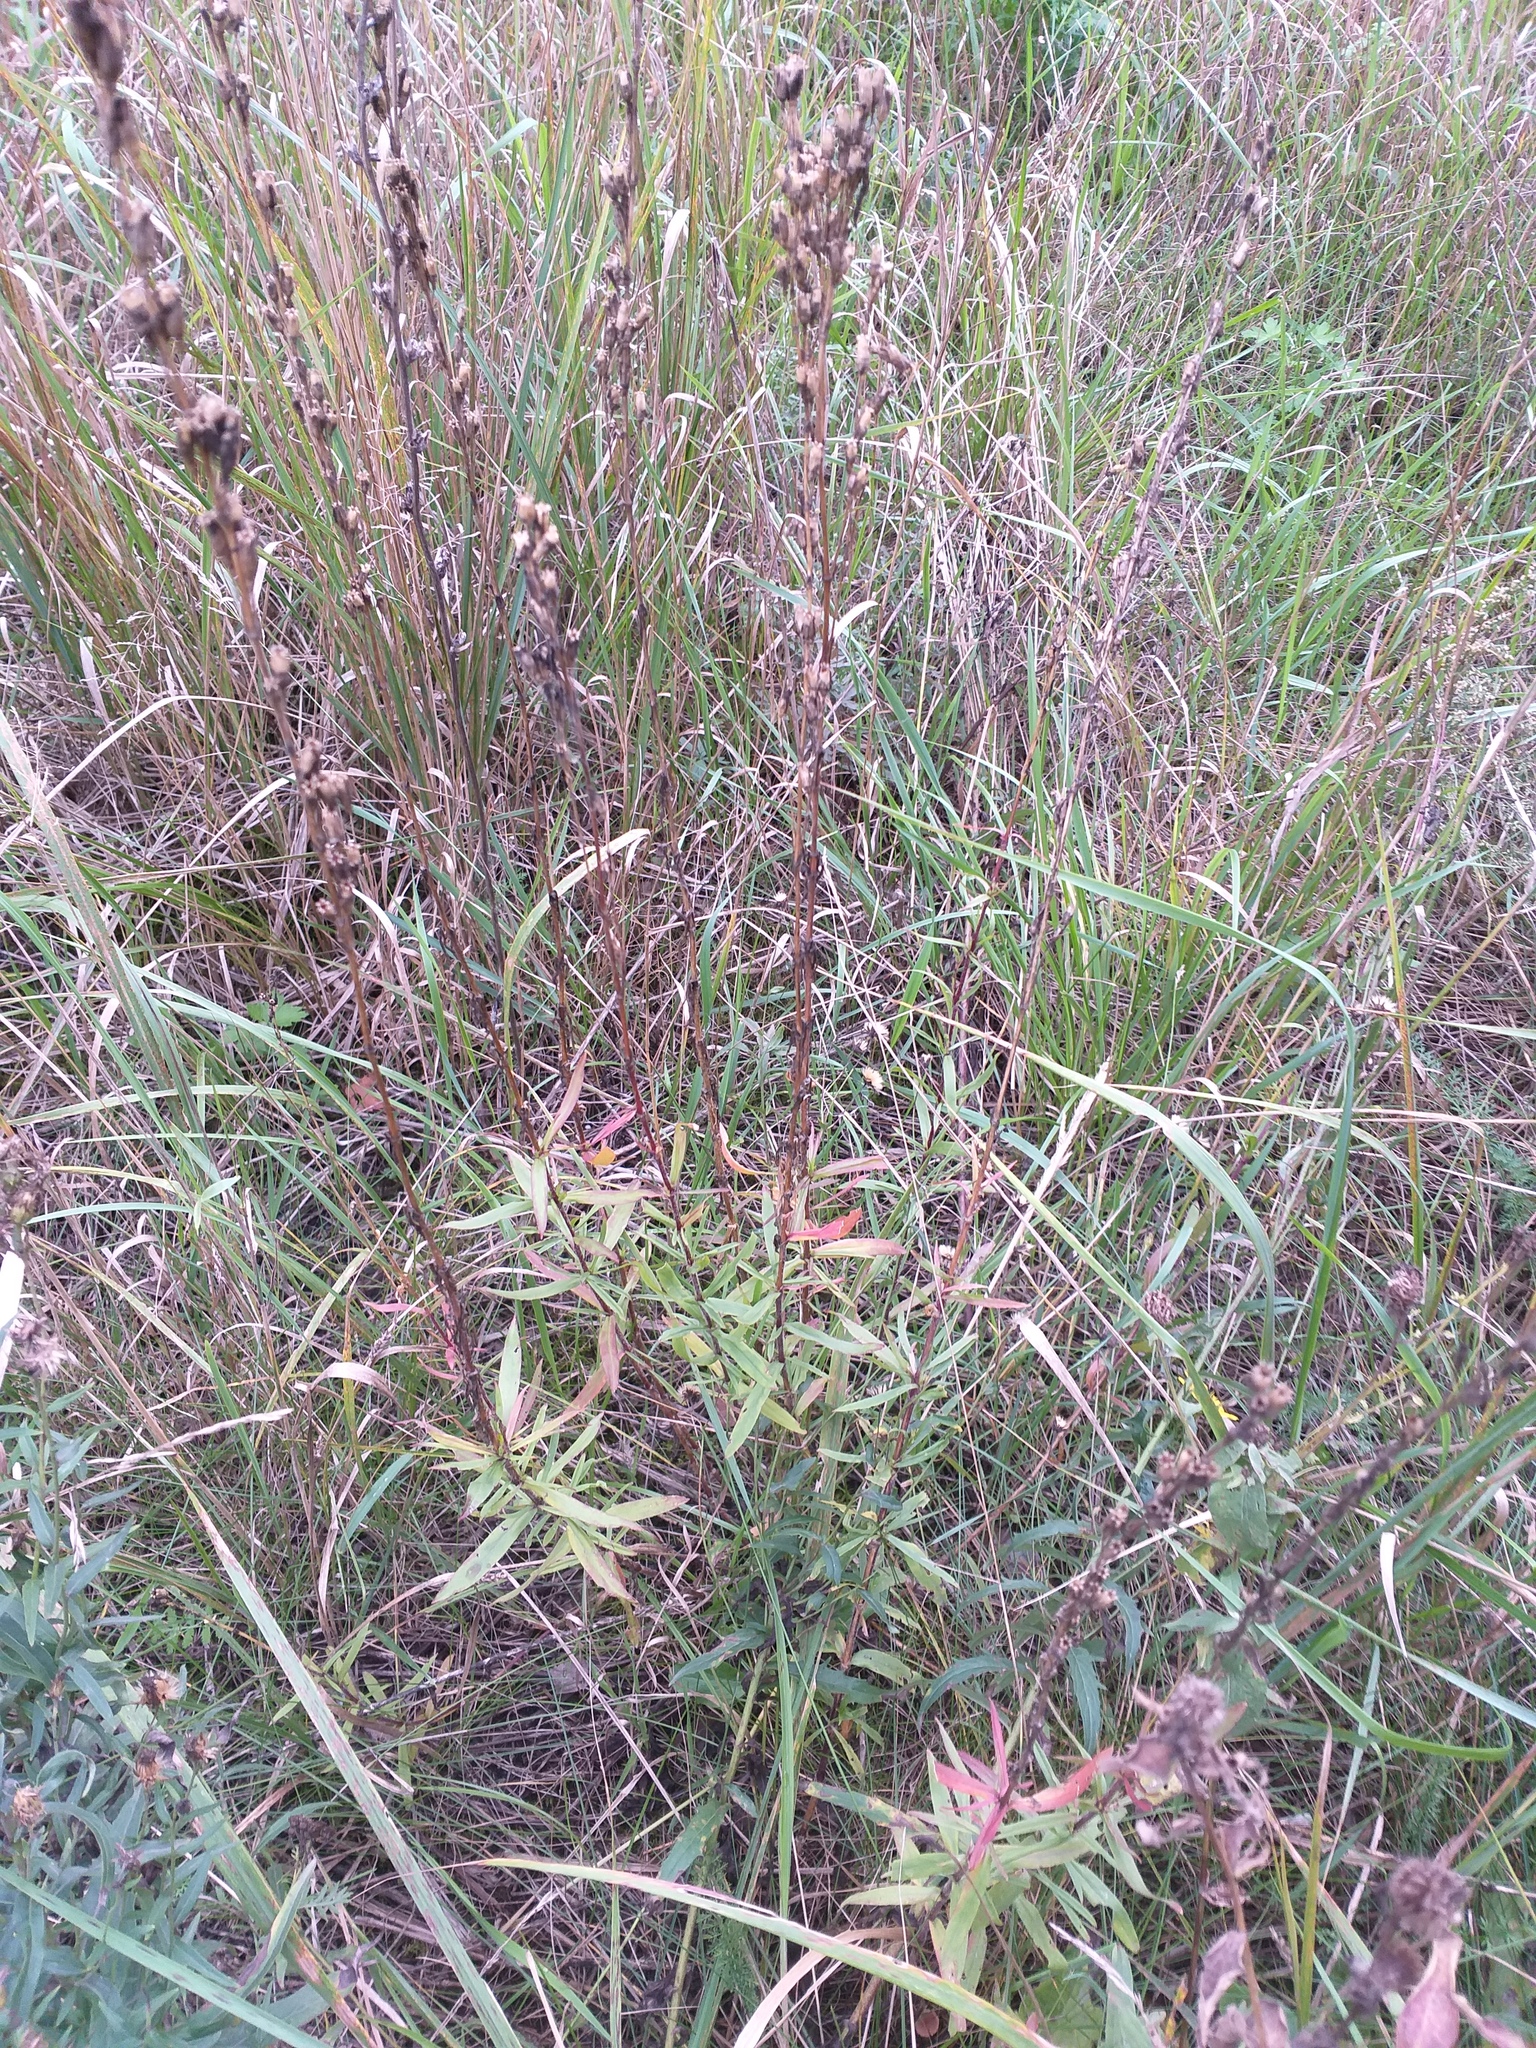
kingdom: Plantae
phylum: Tracheophyta
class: Magnoliopsida
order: Caryophyllales
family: Caryophyllaceae
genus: Silene
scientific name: Silene tatarica
